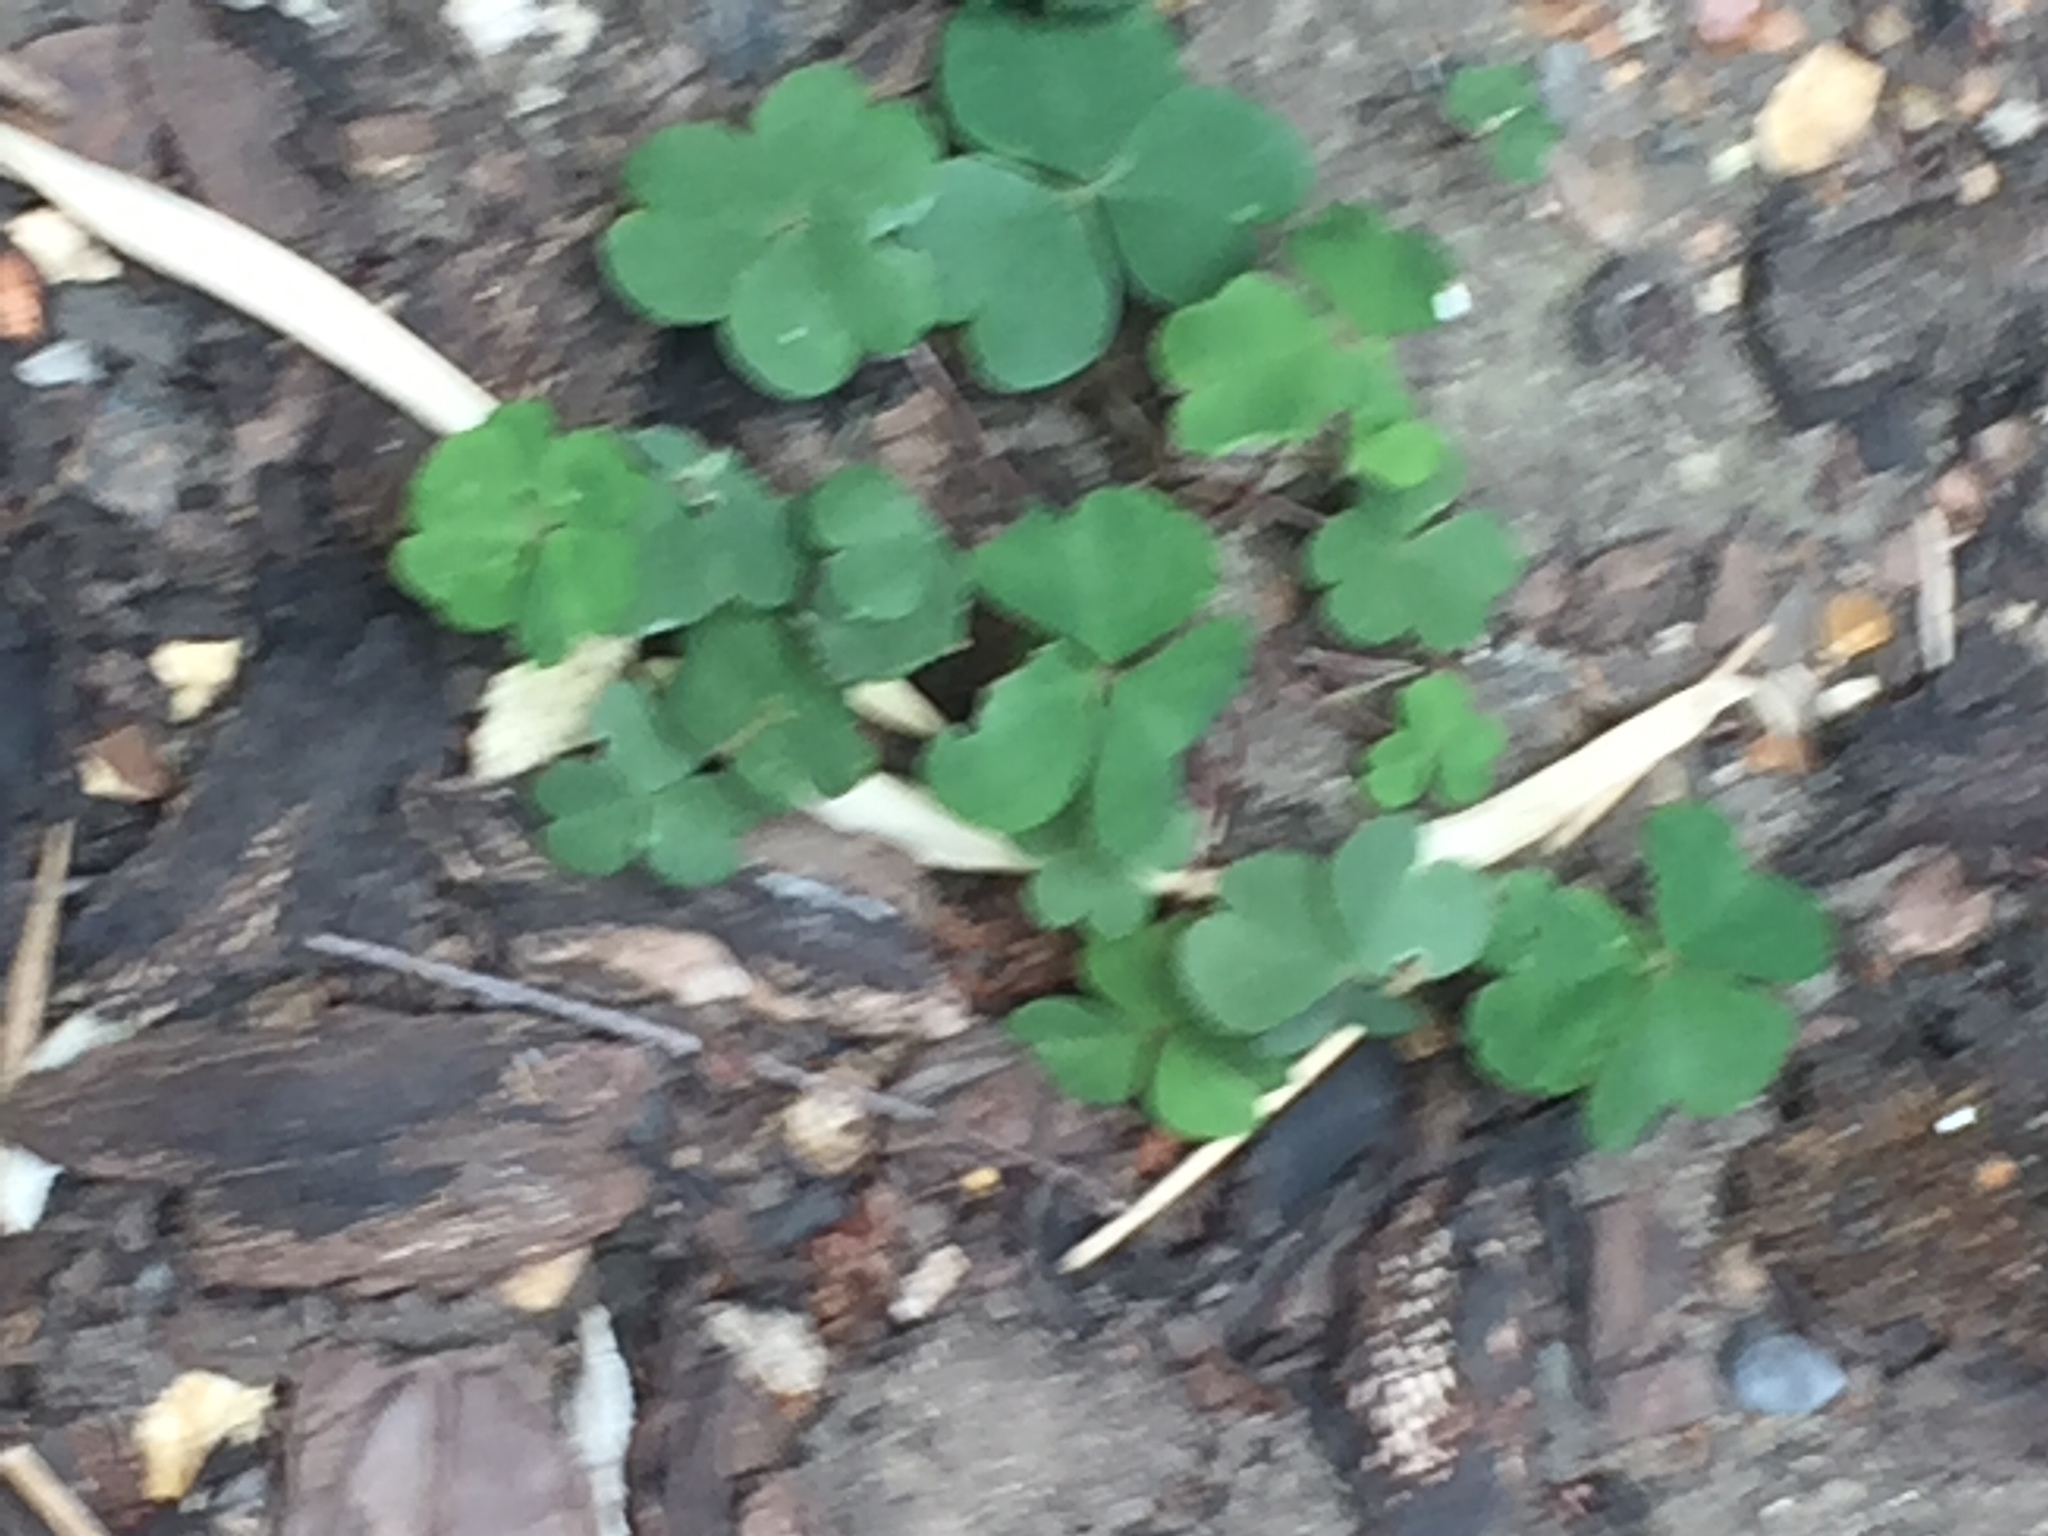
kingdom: Plantae
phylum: Tracheophyta
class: Magnoliopsida
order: Oxalidales
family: Oxalidaceae
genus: Oxalis
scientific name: Oxalis acetosella
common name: Wood-sorrel
